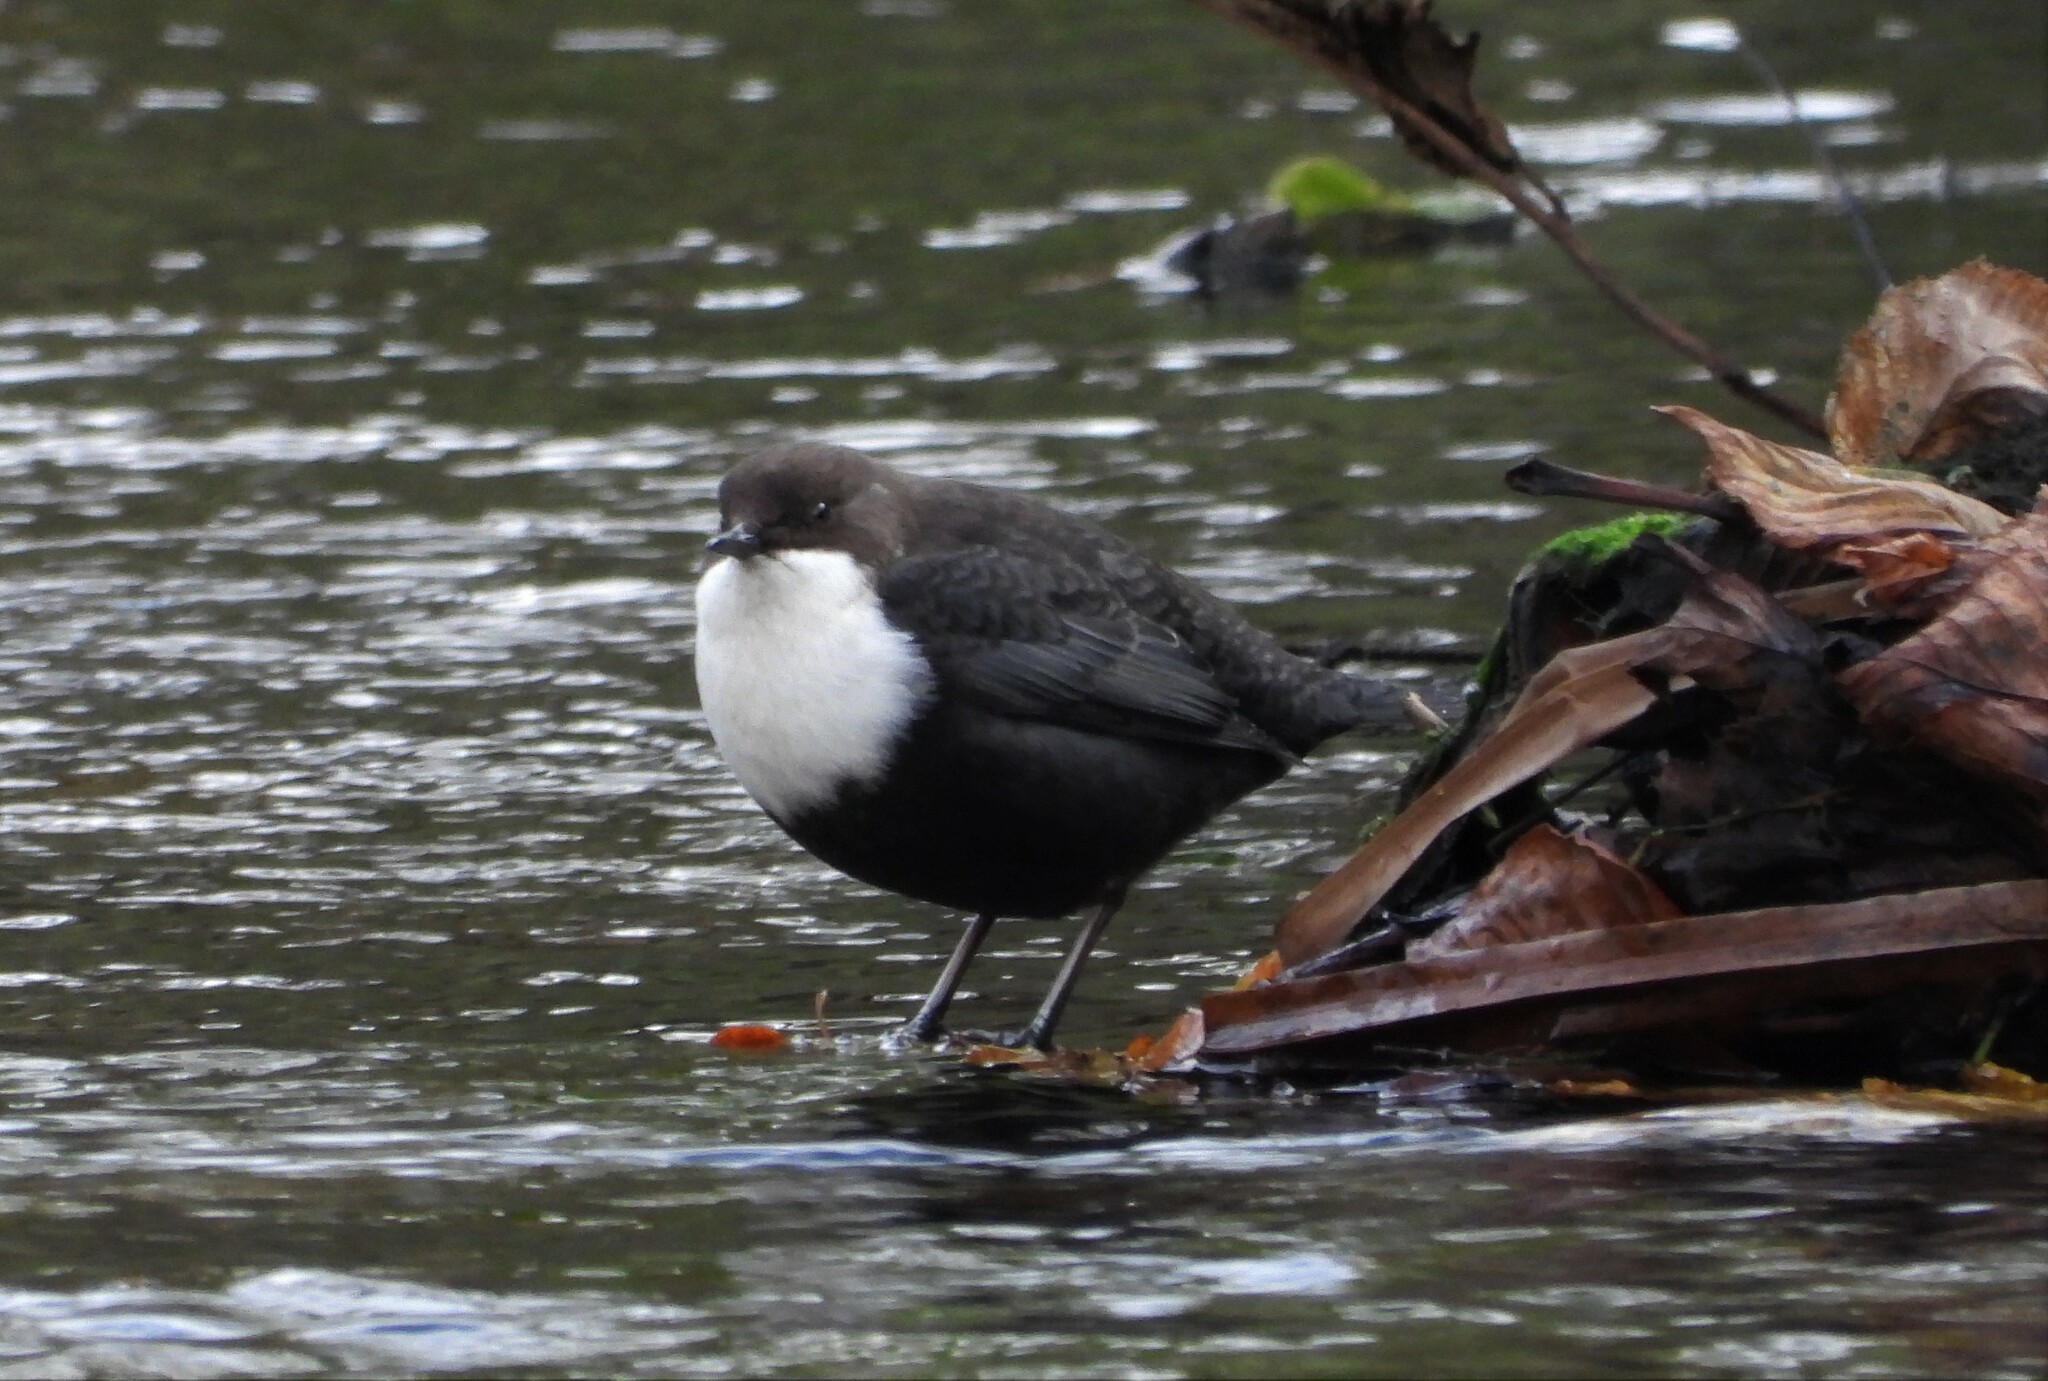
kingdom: Animalia
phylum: Chordata
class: Aves
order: Passeriformes
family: Cinclidae
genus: Cinclus
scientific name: Cinclus cinclus
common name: White-throated dipper
